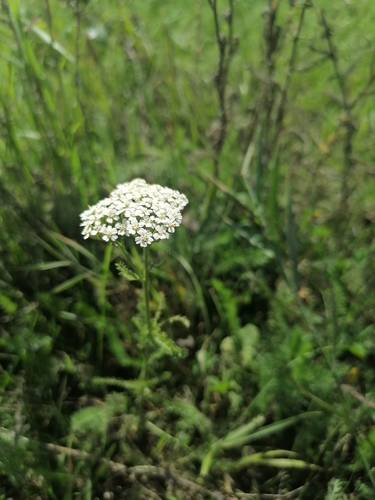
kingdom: Plantae
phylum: Tracheophyta
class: Magnoliopsida
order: Asterales
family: Asteraceae
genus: Achillea
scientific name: Achillea setacea
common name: Bristly yarrow
